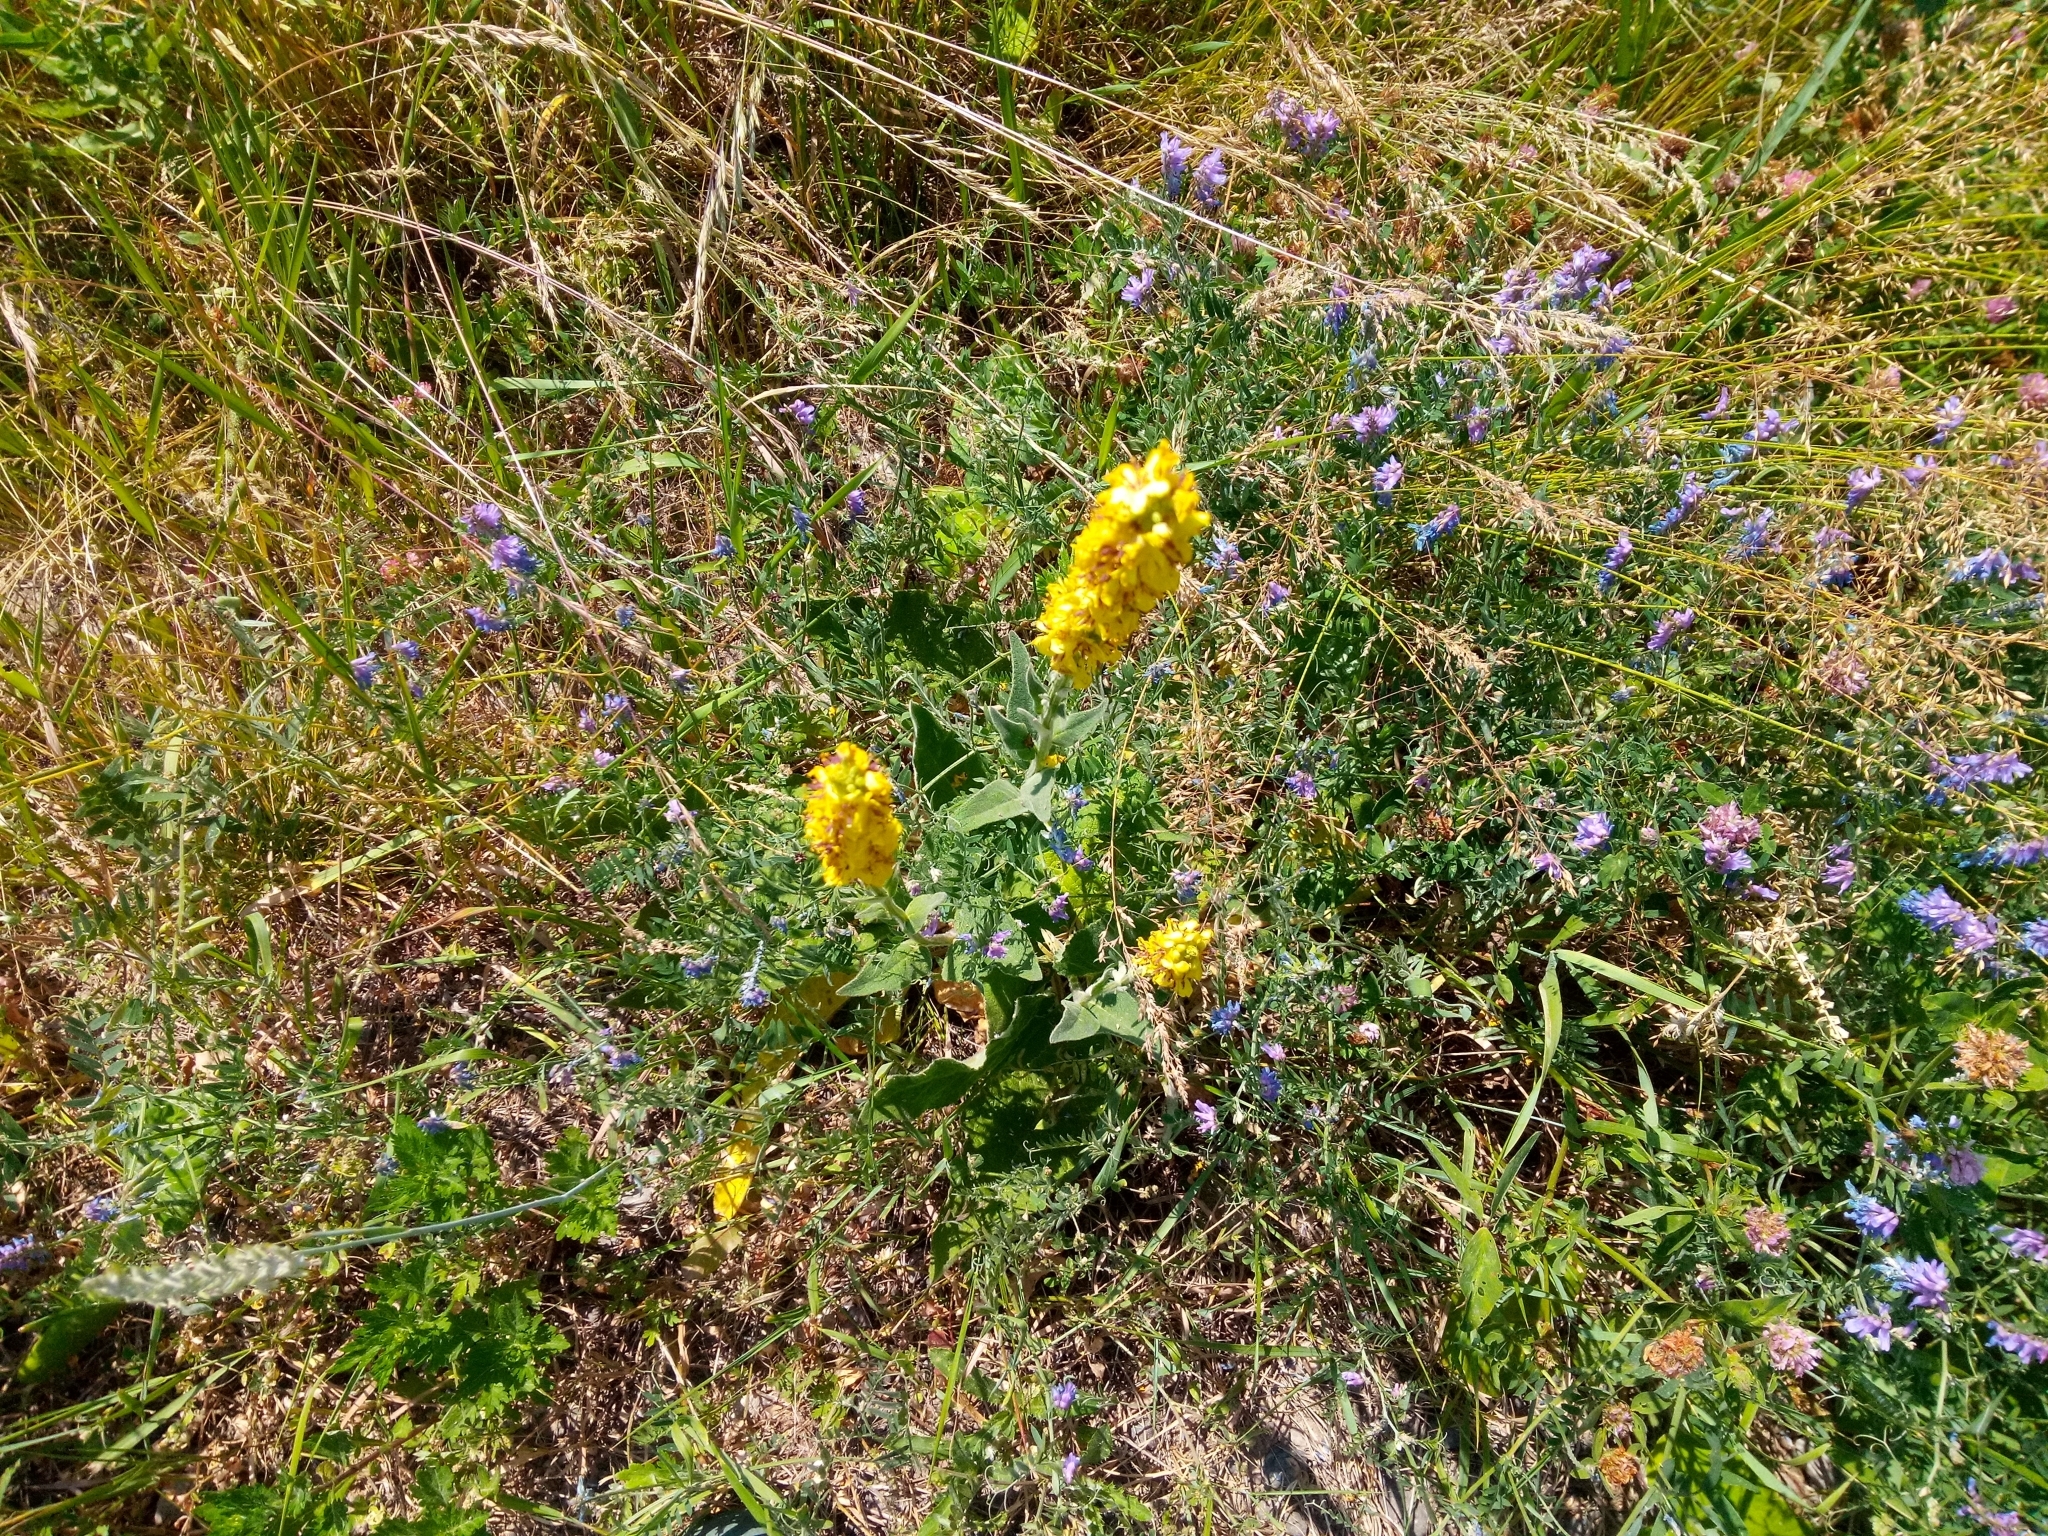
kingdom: Plantae
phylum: Tracheophyta
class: Magnoliopsida
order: Lamiales
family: Scrophulariaceae
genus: Verbascum
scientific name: Verbascum nigrum
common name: Dark mullein
